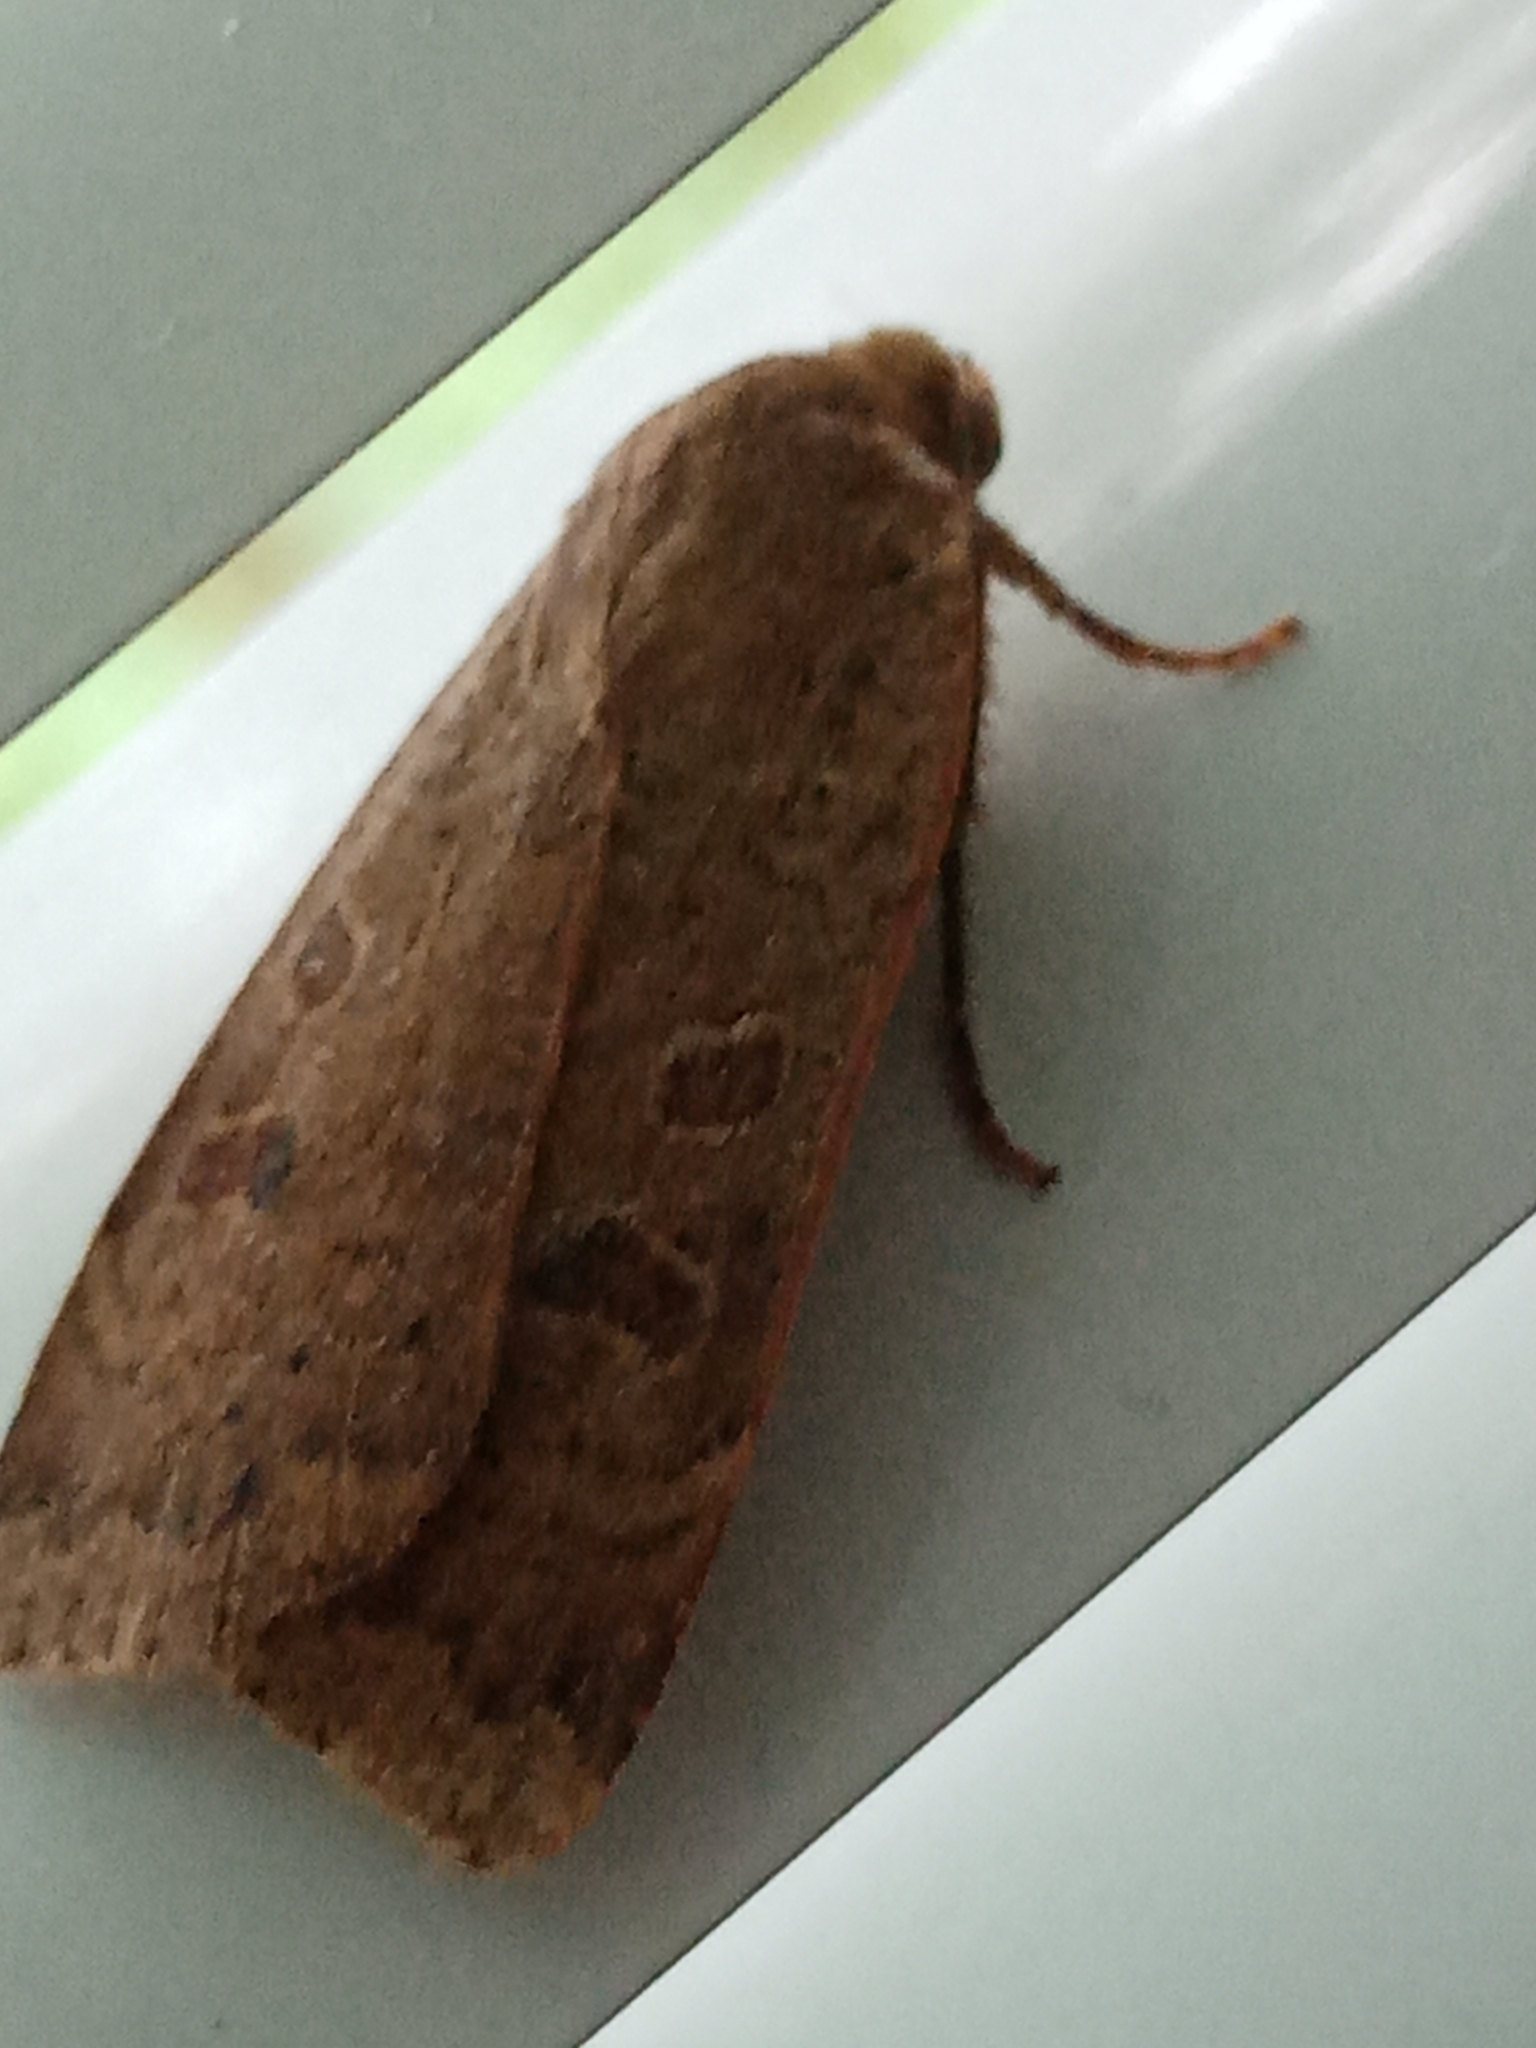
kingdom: Animalia
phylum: Arthropoda
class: Insecta
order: Lepidoptera
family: Noctuidae
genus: Noctua
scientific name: Noctua comes
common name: Lesser yellow underwing
